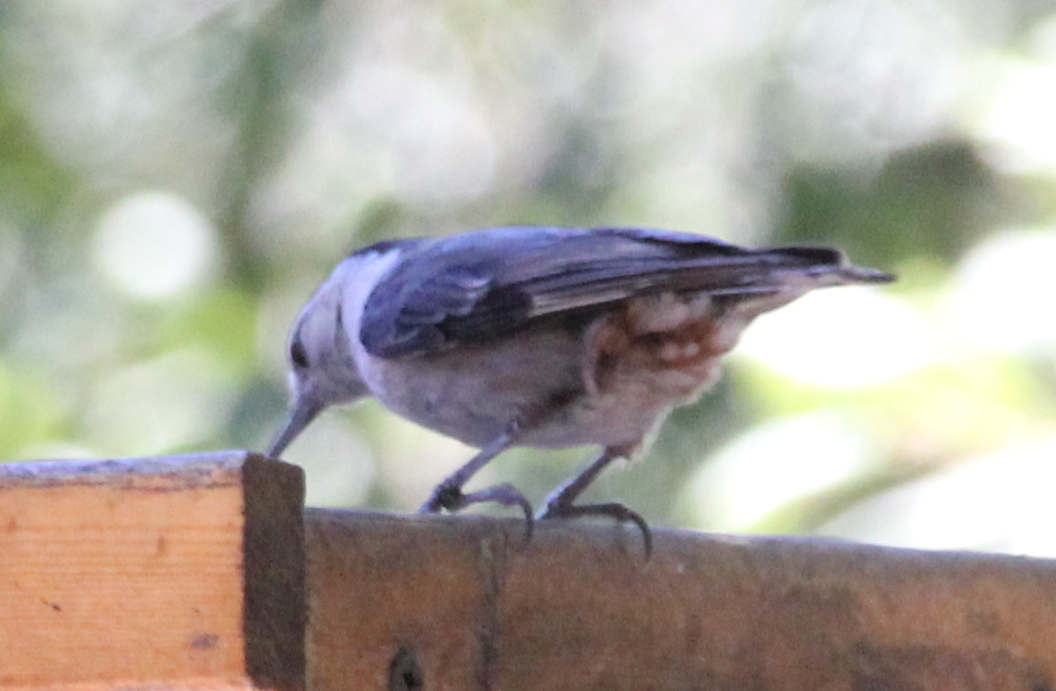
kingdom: Animalia
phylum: Chordata
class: Aves
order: Passeriformes
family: Sittidae
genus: Sitta
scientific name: Sitta carolinensis
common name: White-breasted nuthatch
